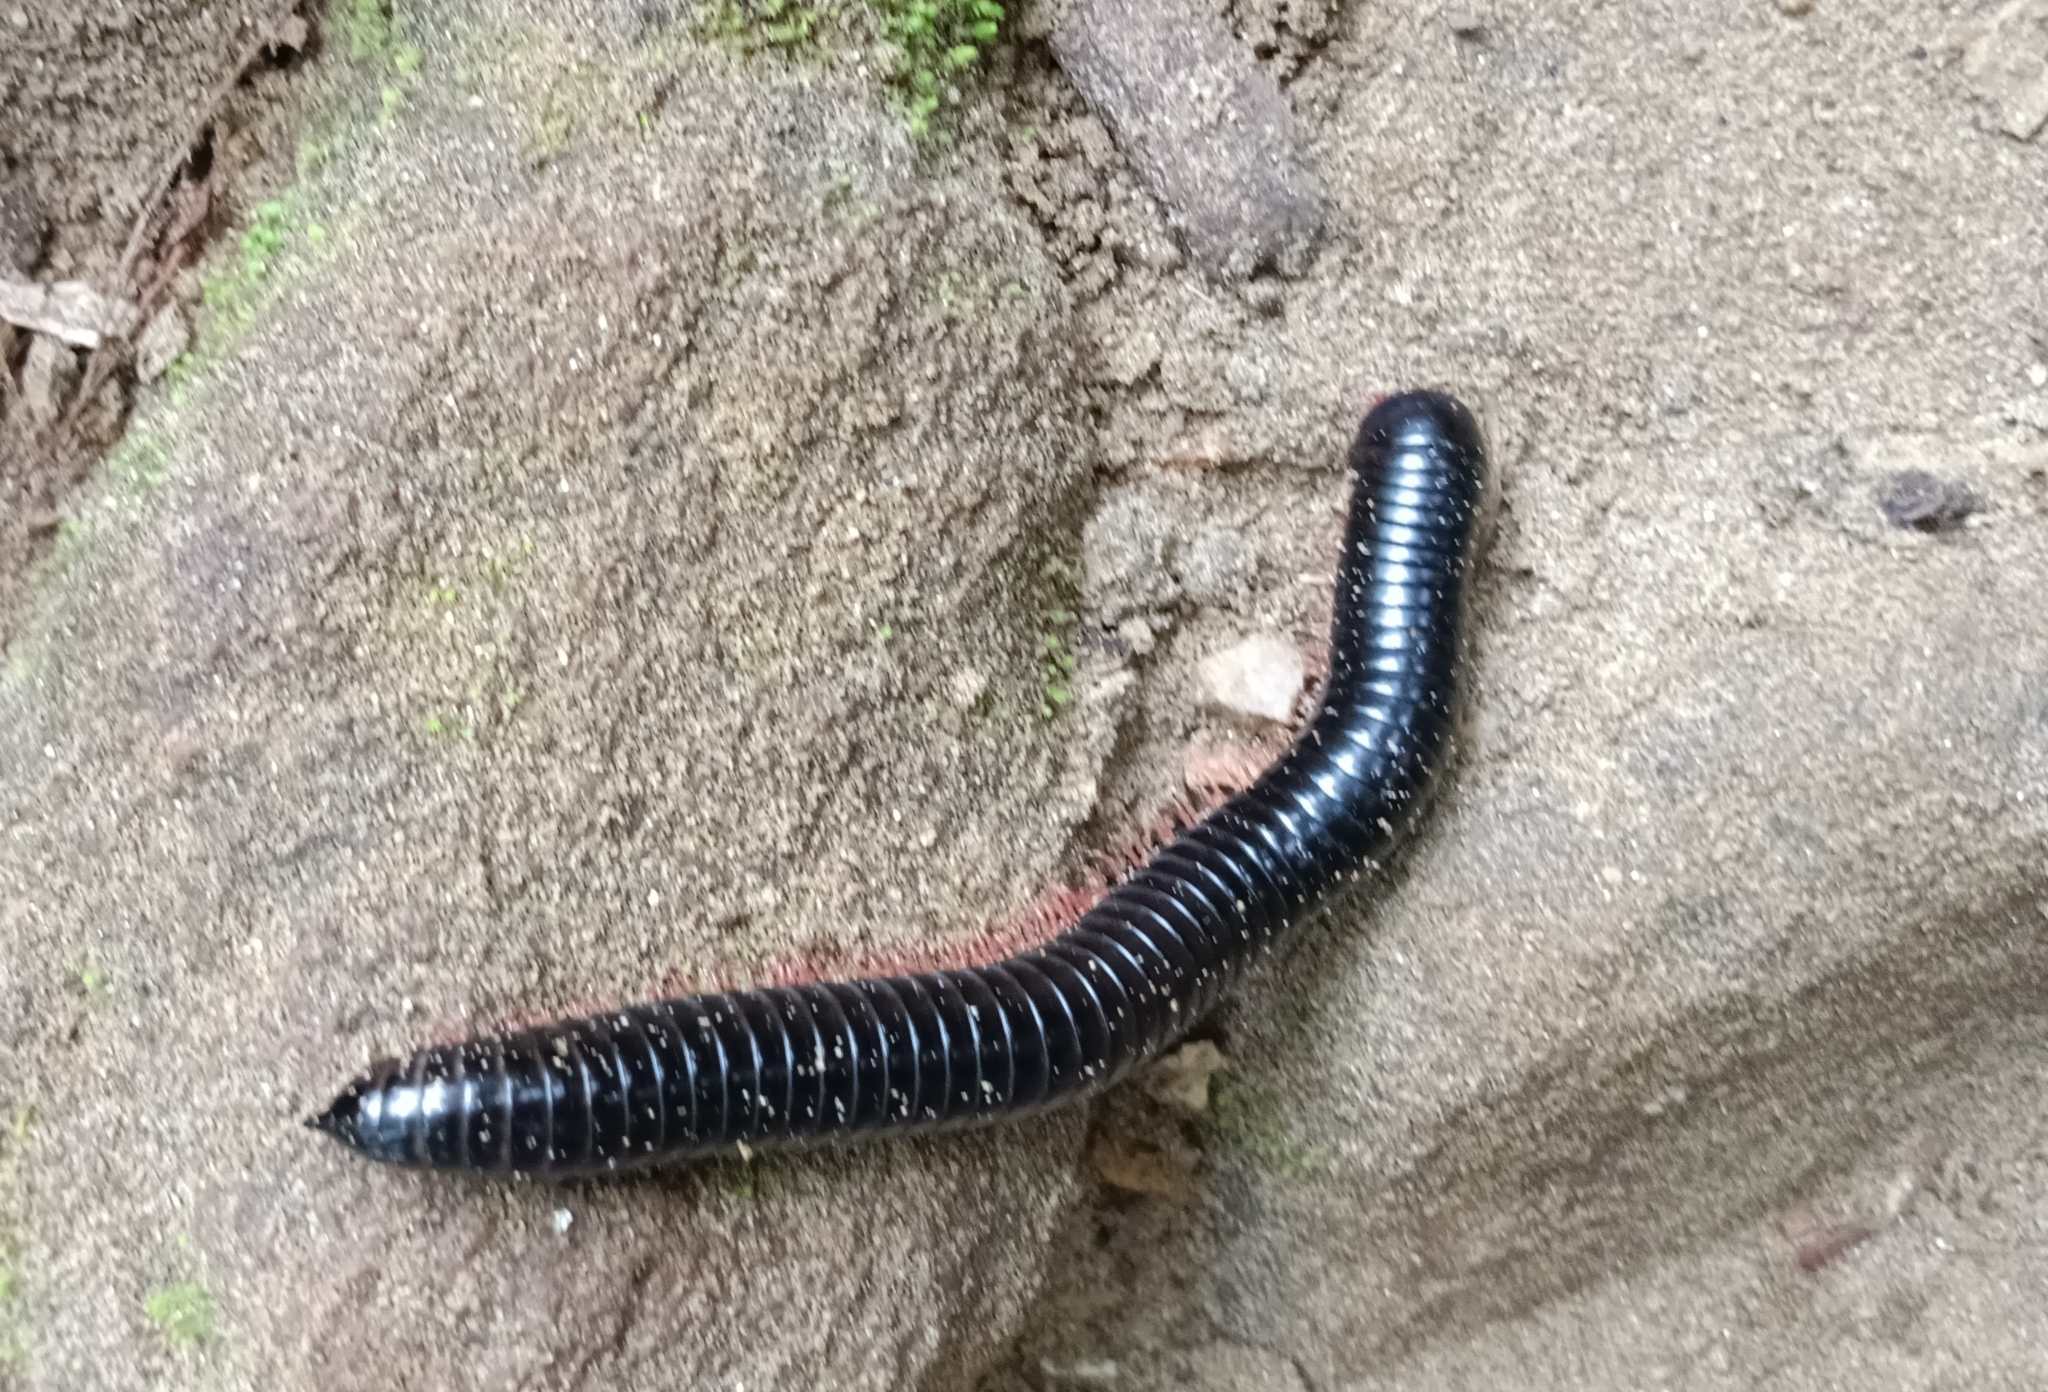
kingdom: Animalia
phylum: Arthropoda
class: Diplopoda
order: Spirostreptida
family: Harpagophoridae
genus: Phyllogonostreptus
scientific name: Phyllogonostreptus nigrolabiatus
